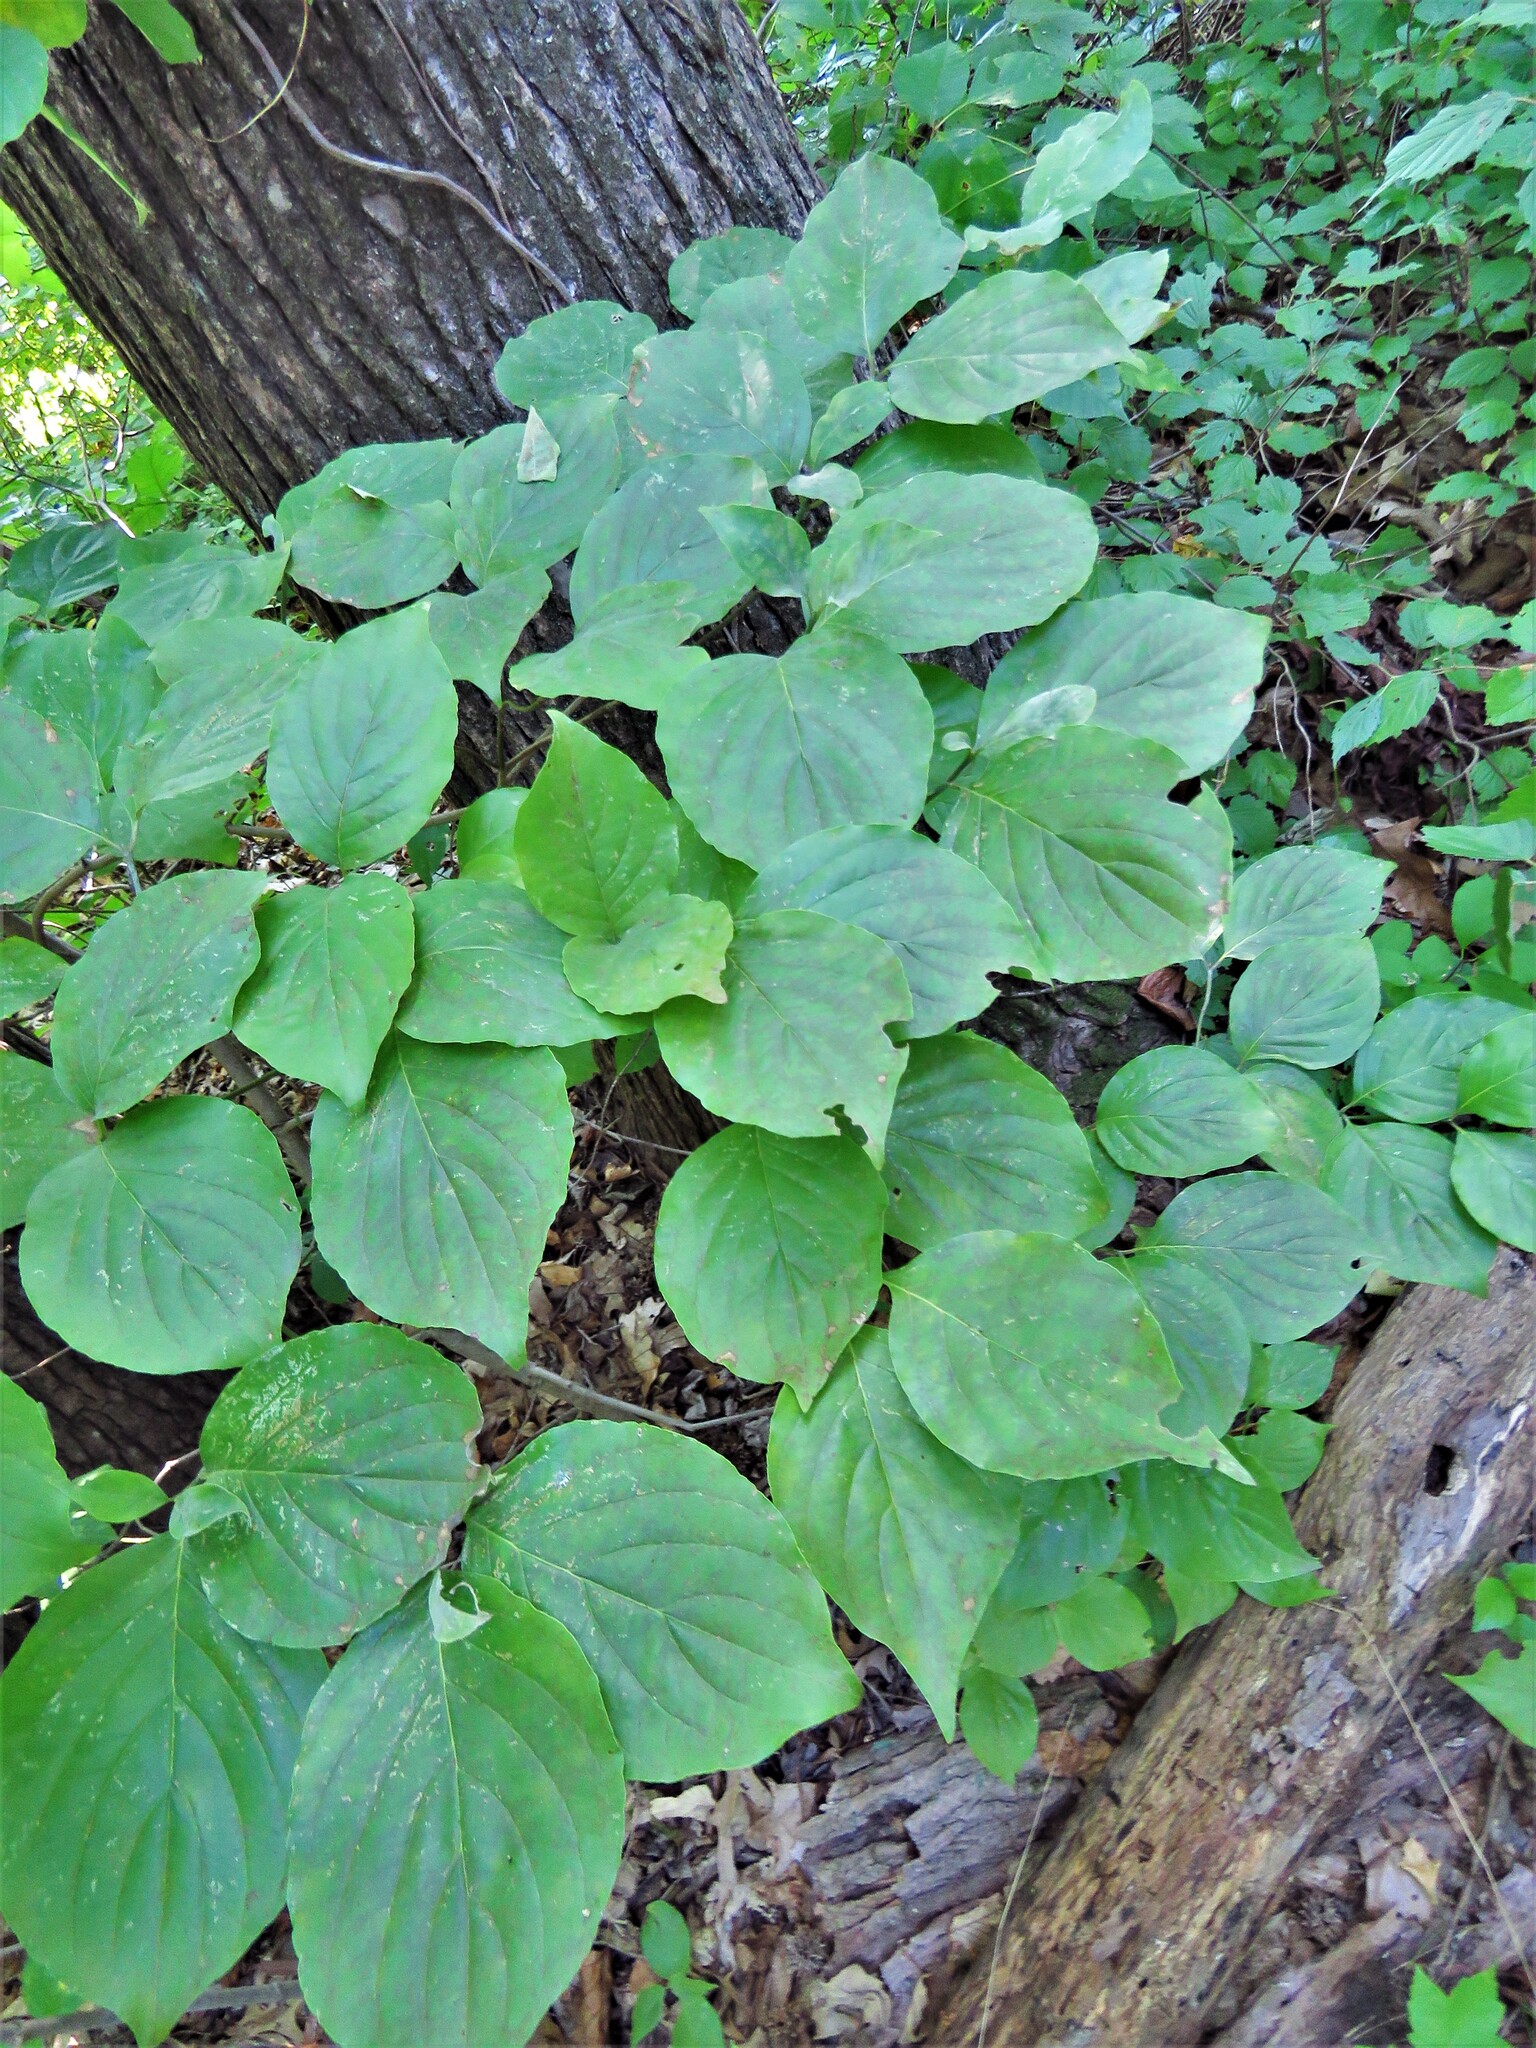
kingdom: Plantae
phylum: Tracheophyta
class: Magnoliopsida
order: Cornales
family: Cornaceae
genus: Cornus
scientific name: Cornus florida
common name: Flowering dogwood
